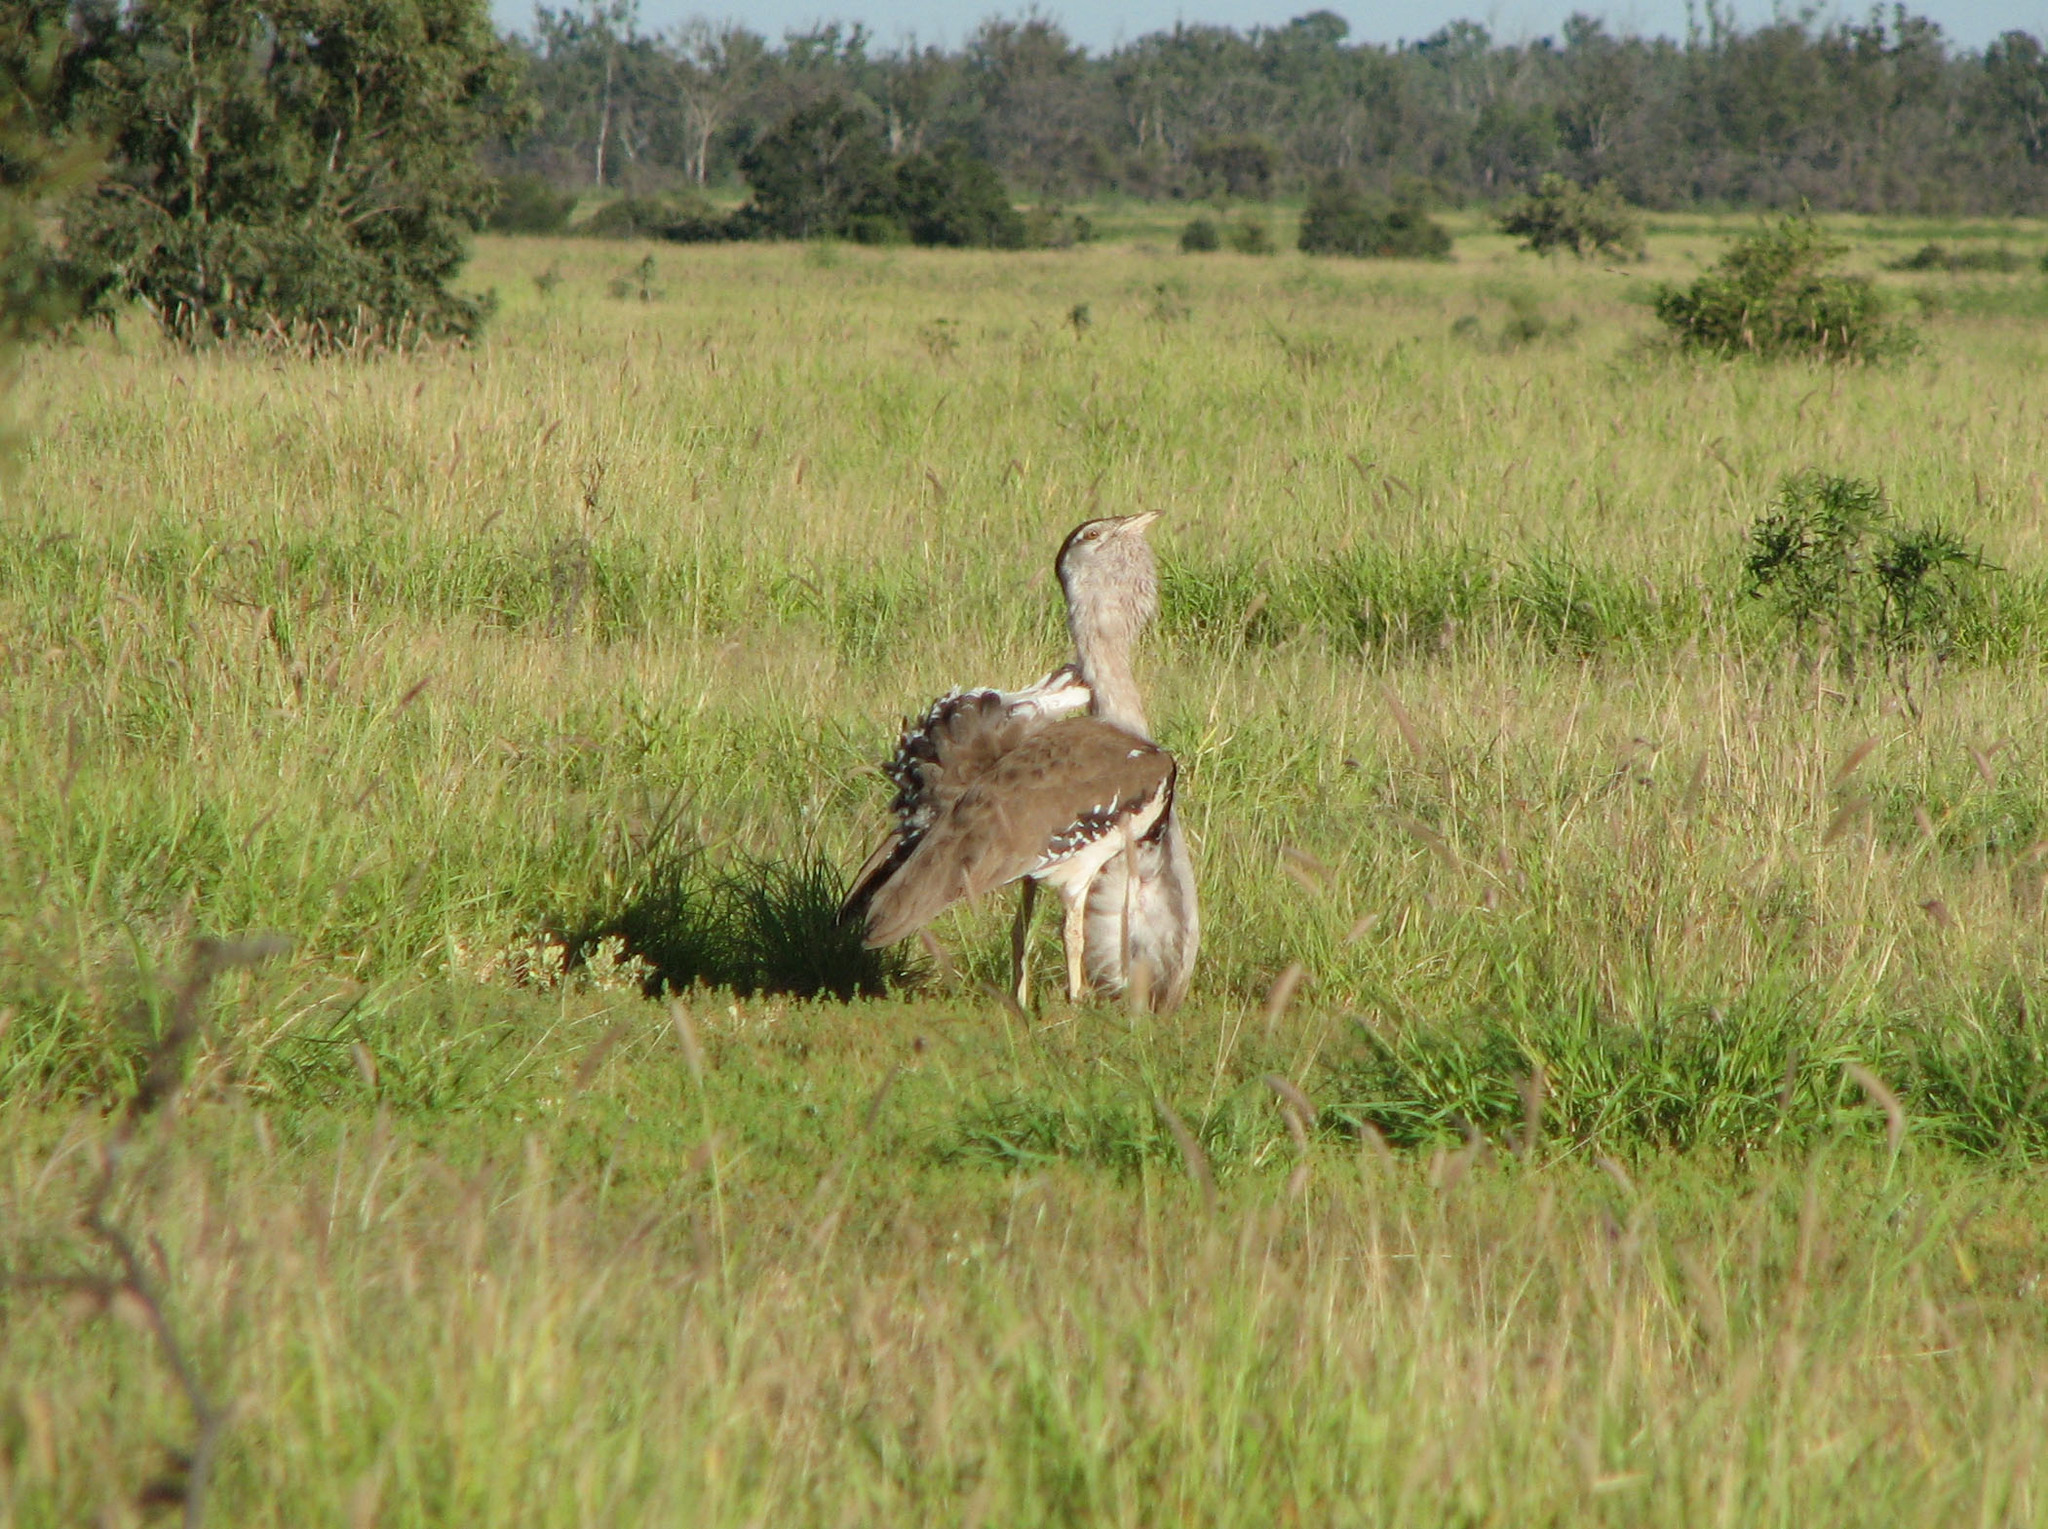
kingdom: Animalia
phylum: Chordata
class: Aves
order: Otidiformes
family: Otididae
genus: Ardeotis
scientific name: Ardeotis australis
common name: Australian bustard
